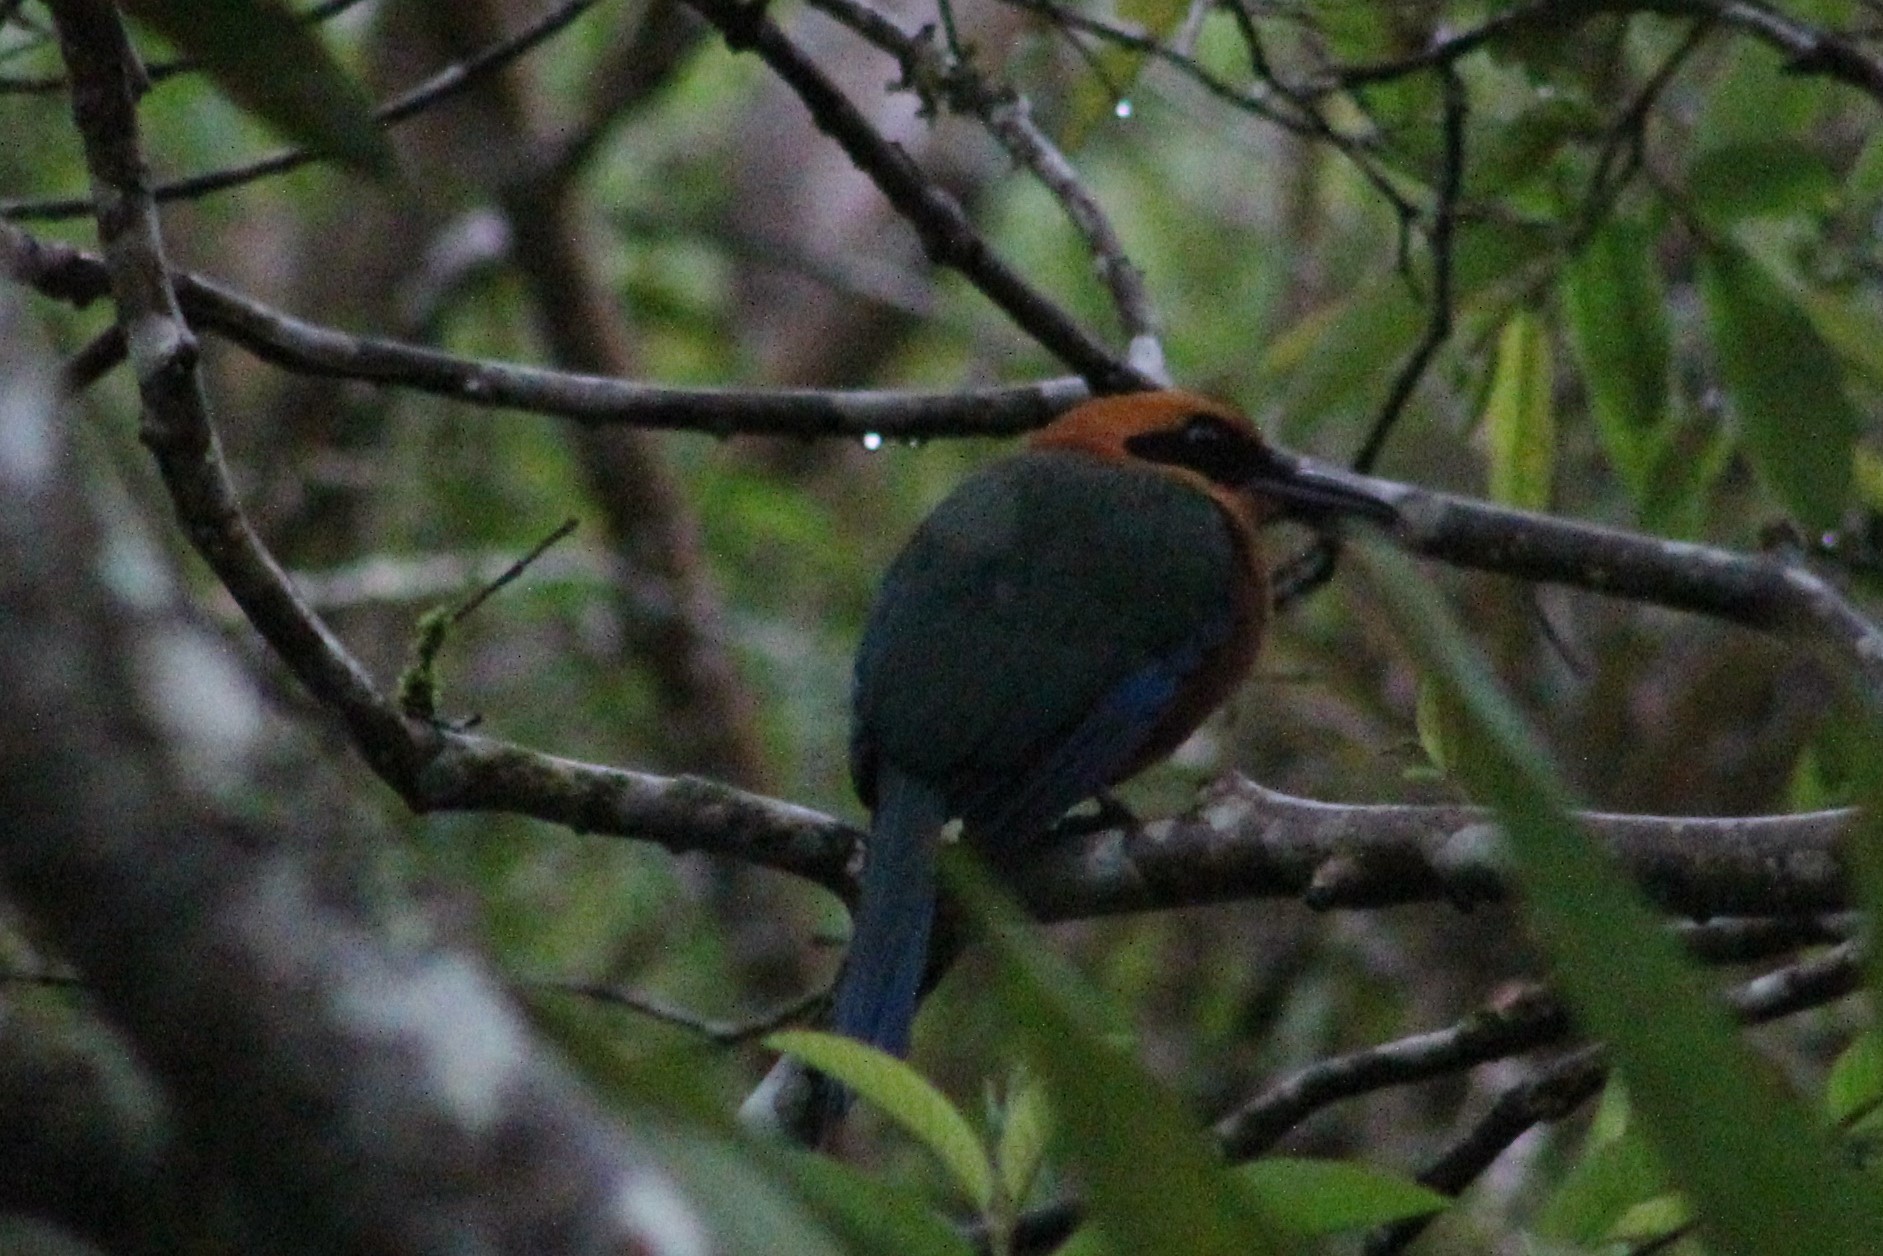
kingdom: Animalia
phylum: Chordata
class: Aves
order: Coraciiformes
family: Momotidae
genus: Baryphthengus
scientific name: Baryphthengus martii
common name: Rufous motmot
